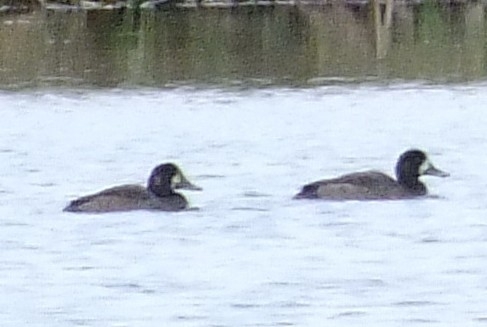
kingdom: Animalia
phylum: Chordata
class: Aves
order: Anseriformes
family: Anatidae
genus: Aythya
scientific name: Aythya marila
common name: Greater scaup
